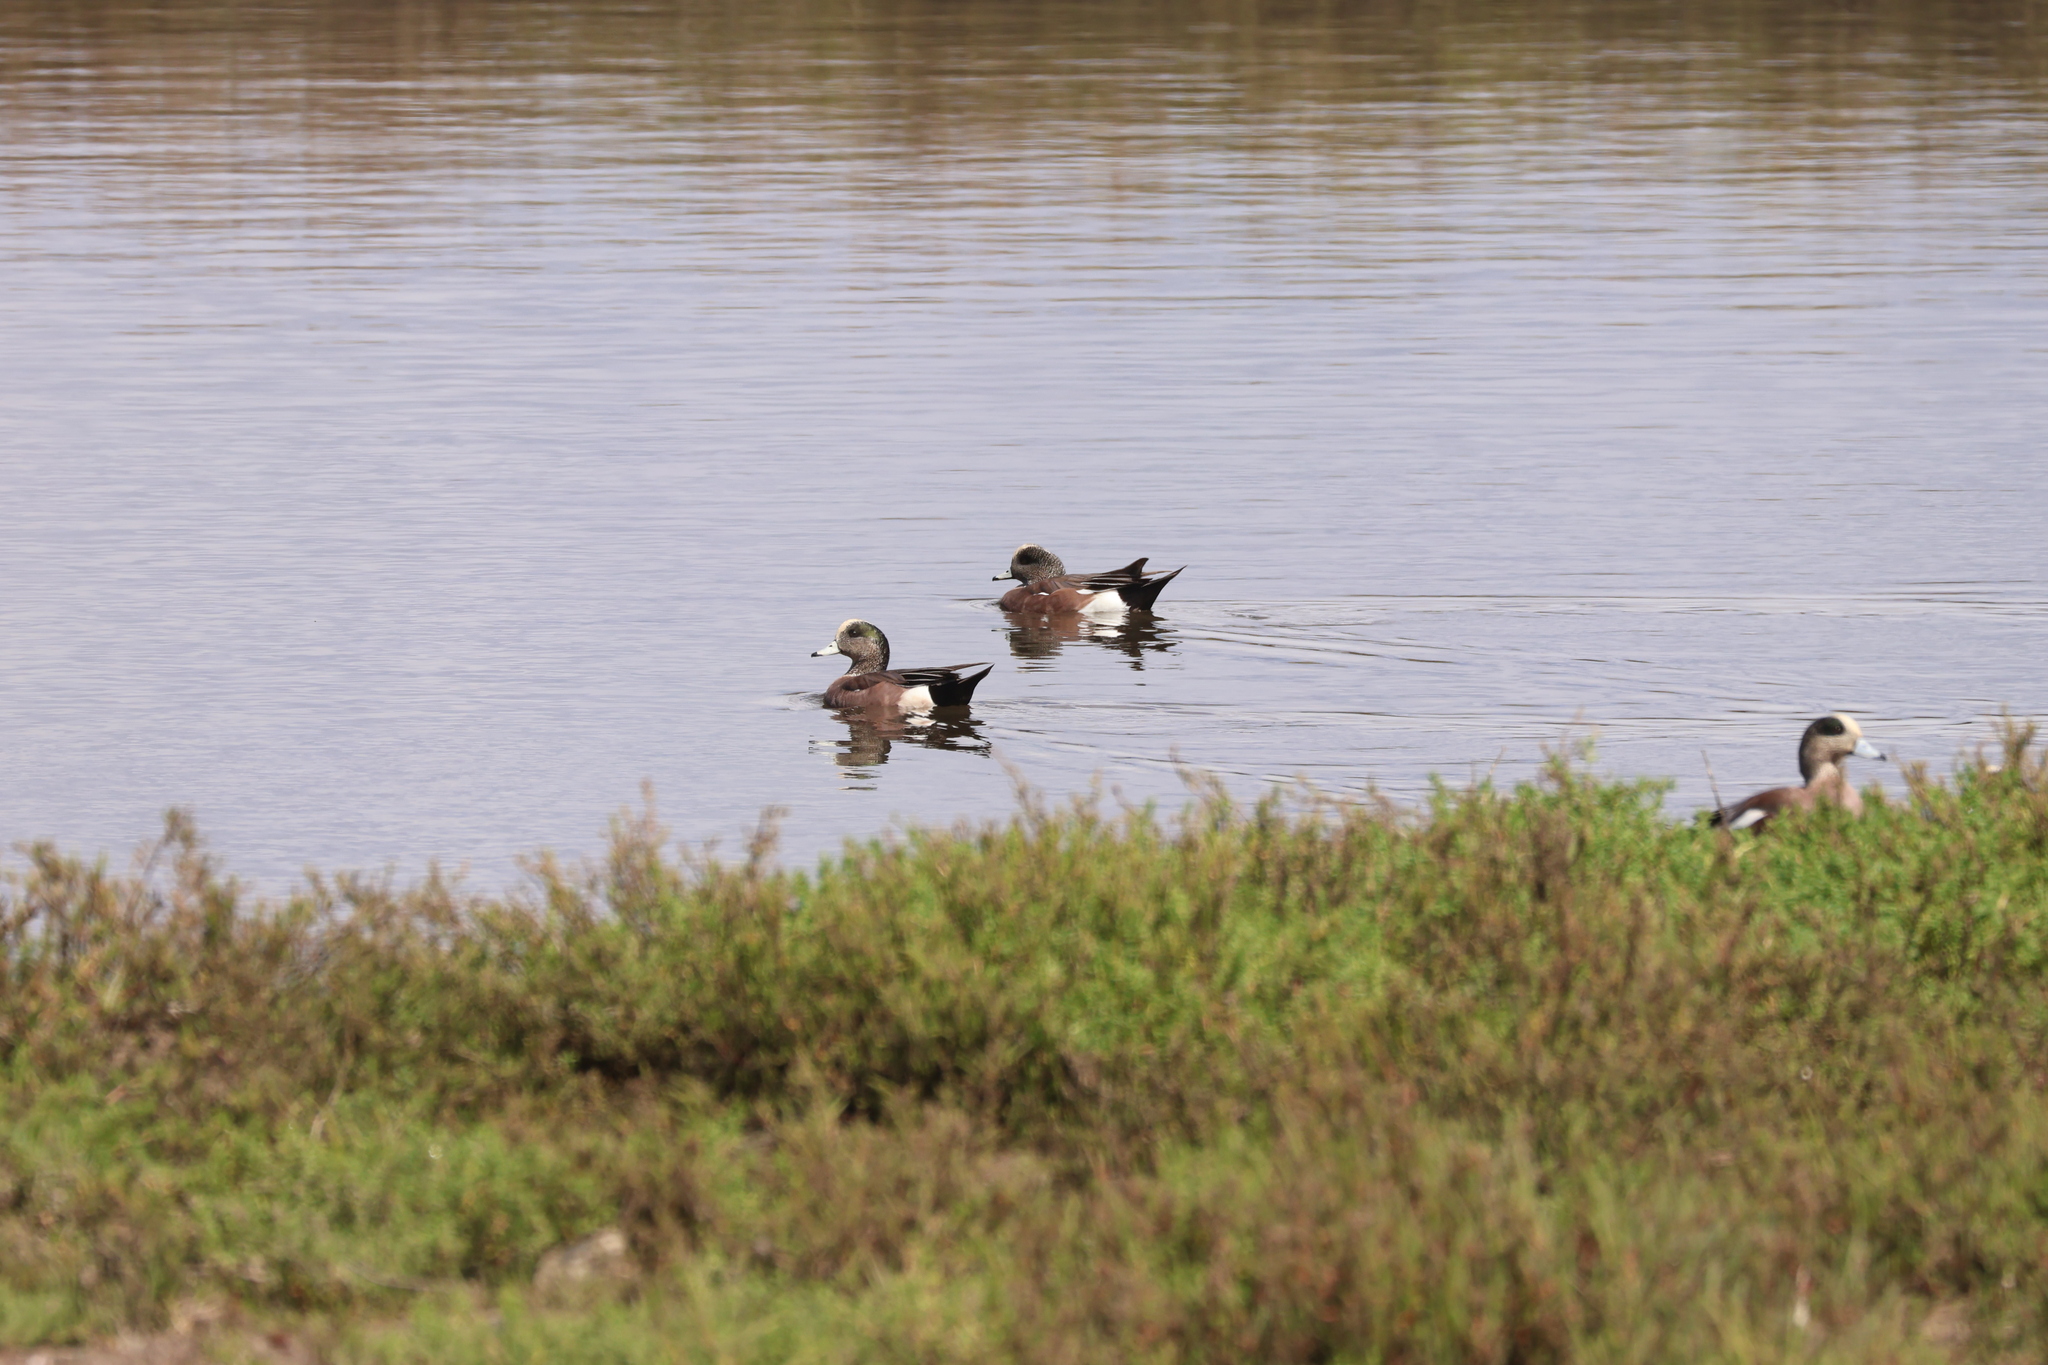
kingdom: Animalia
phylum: Chordata
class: Aves
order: Anseriformes
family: Anatidae
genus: Mareca
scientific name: Mareca americana
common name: American wigeon
